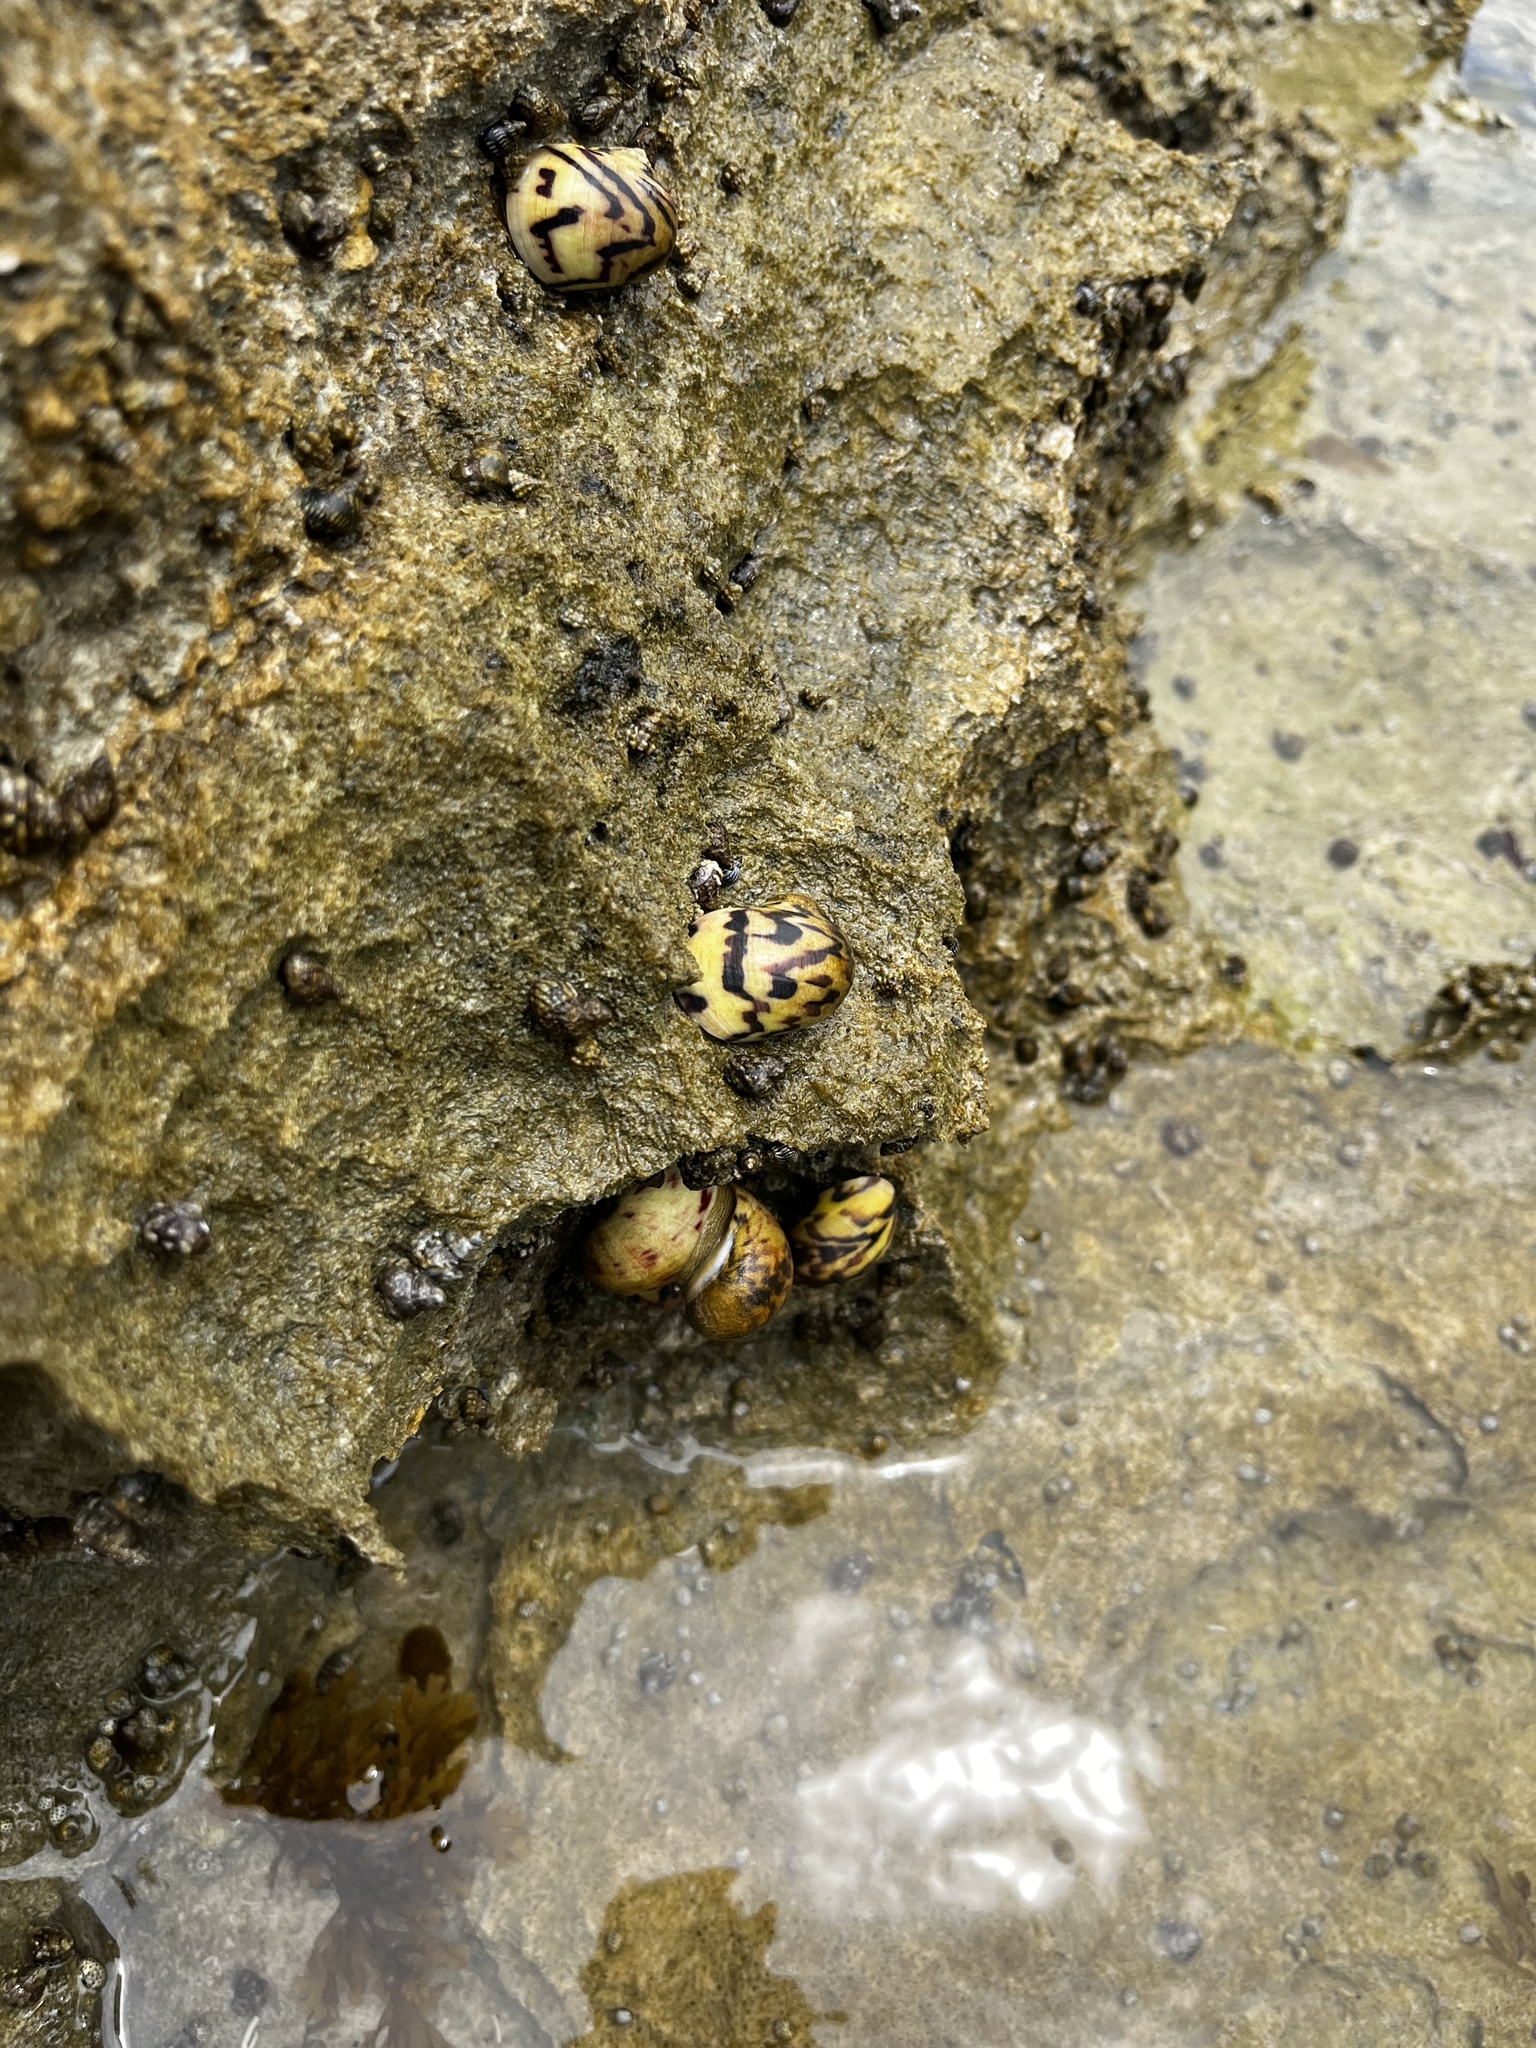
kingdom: Animalia
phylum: Mollusca
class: Gastropoda
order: Cycloneritida
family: Neritidae
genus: Nerita
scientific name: Nerita peloronta
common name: Bleeding tooth
